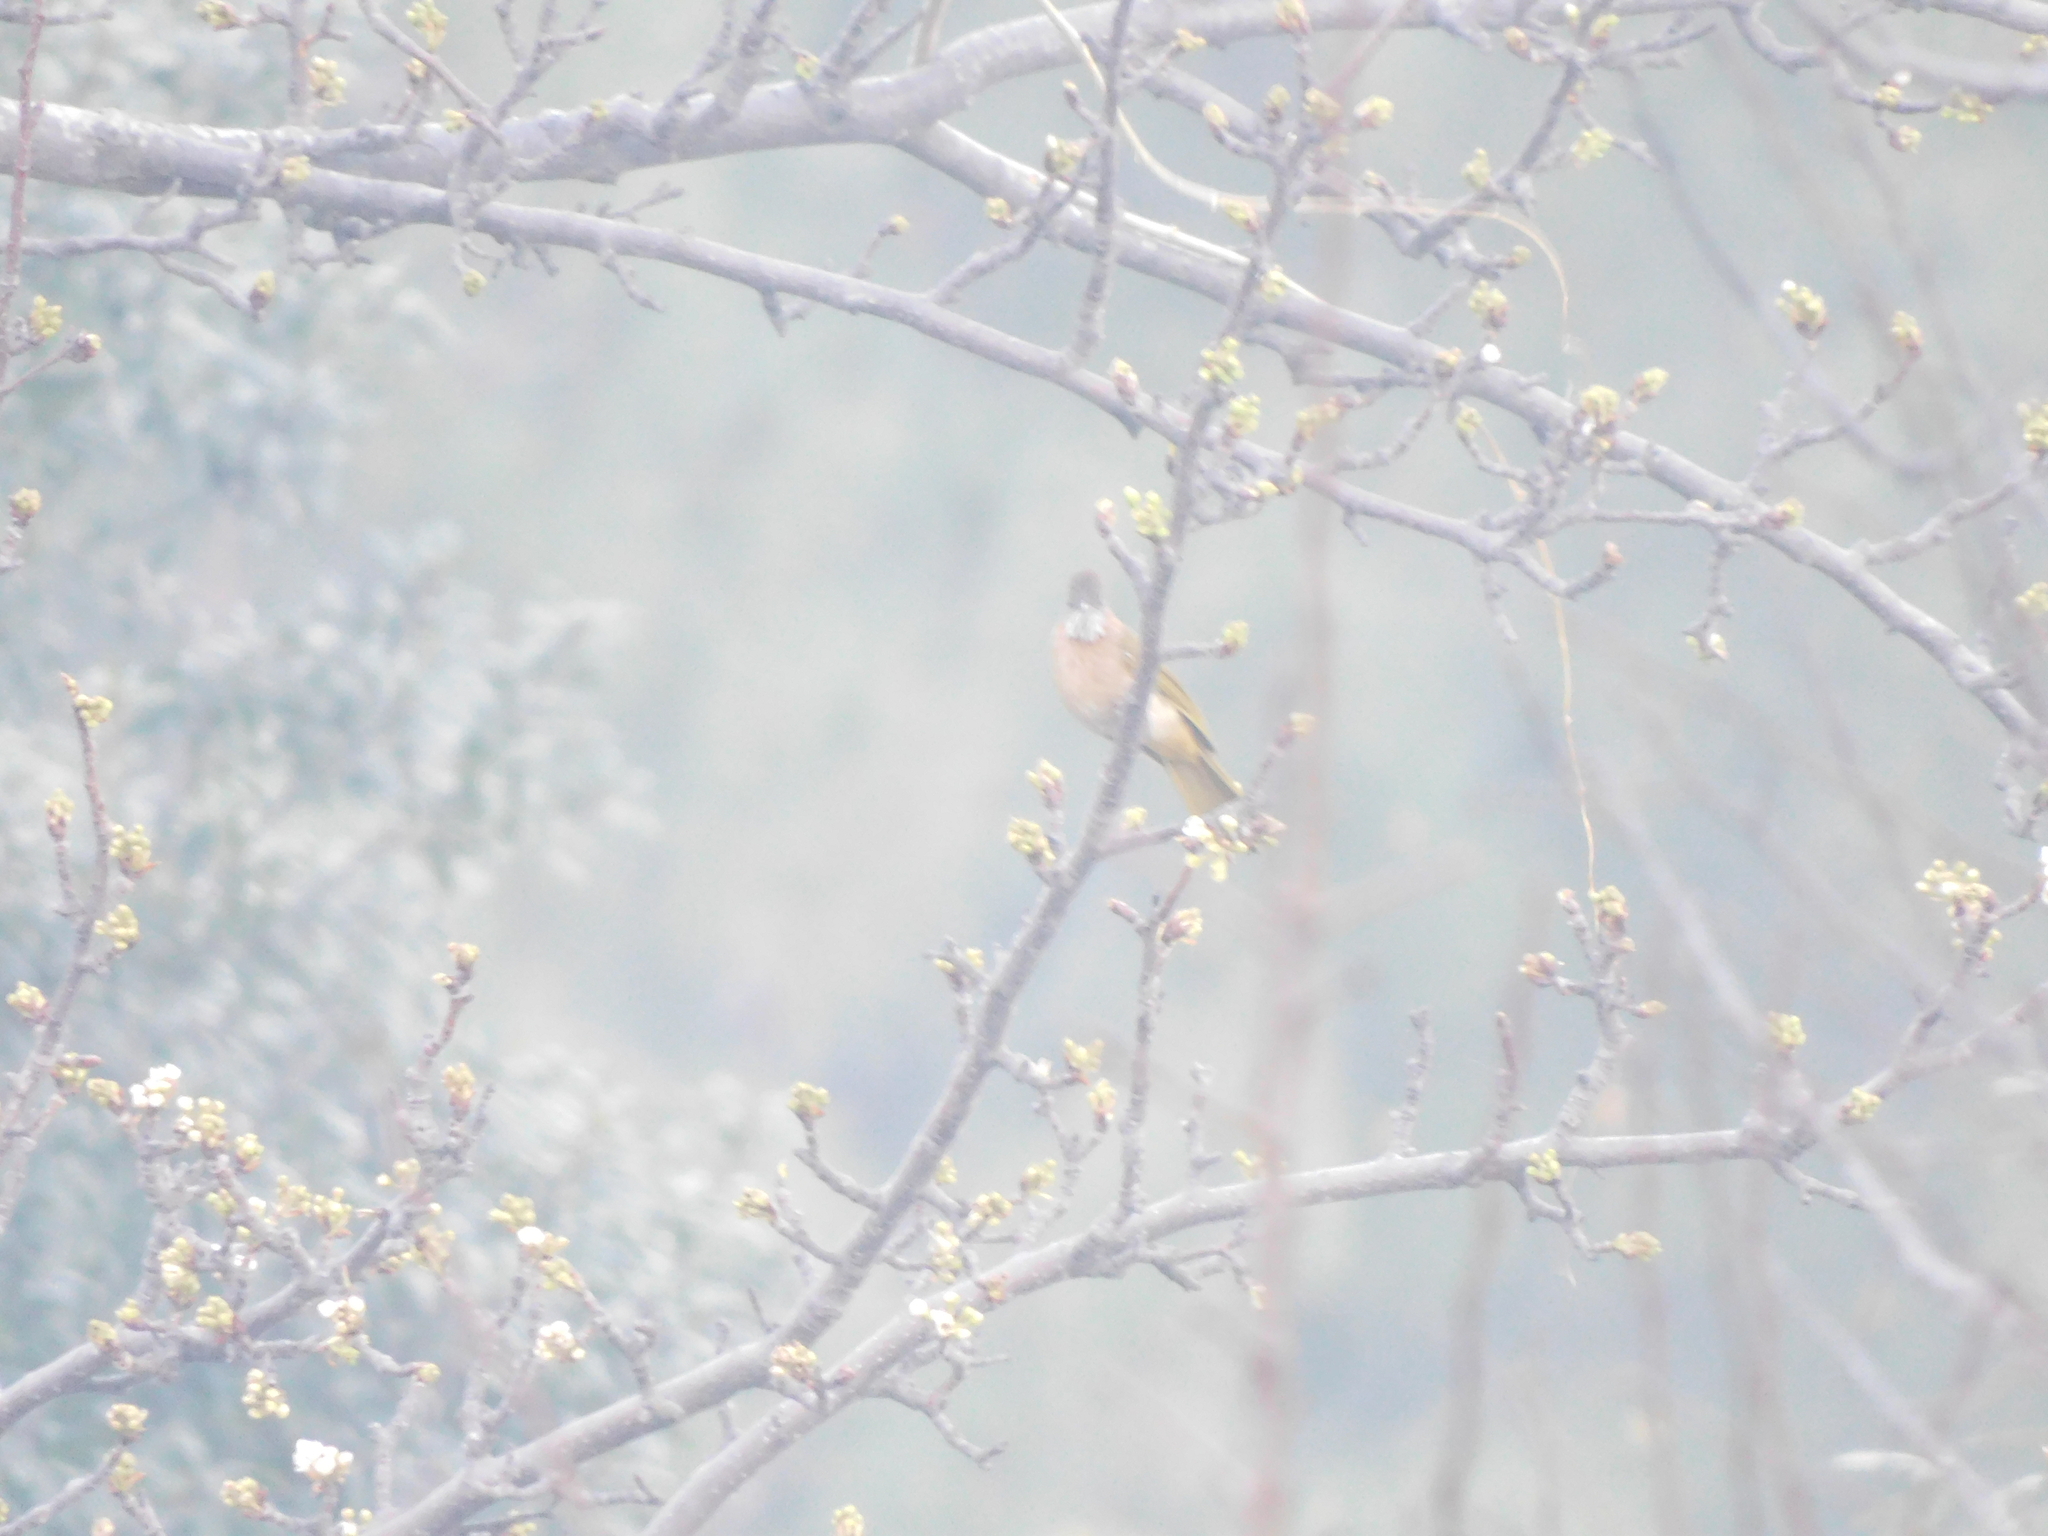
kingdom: Animalia
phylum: Chordata
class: Aves
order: Passeriformes
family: Pycnonotidae
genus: Ixos
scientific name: Ixos mcclellandii
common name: Mountain bulbul
